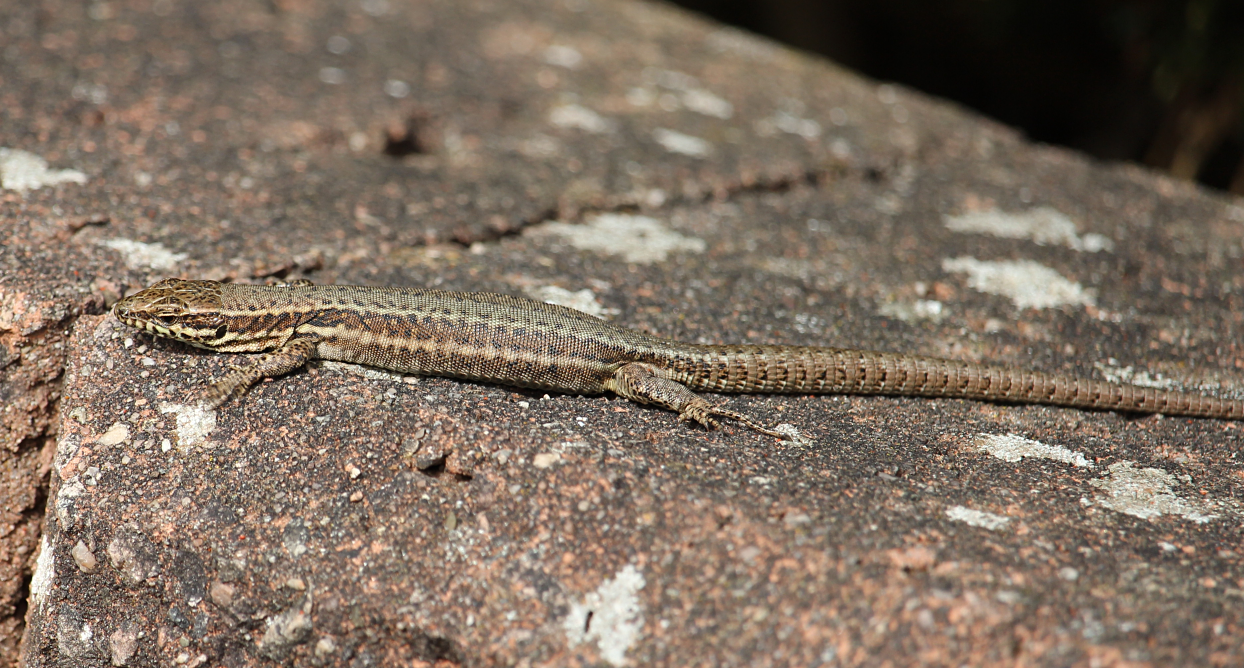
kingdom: Animalia
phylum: Chordata
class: Squamata
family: Lacertidae
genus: Podarcis
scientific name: Podarcis muralis
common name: Common wall lizard
